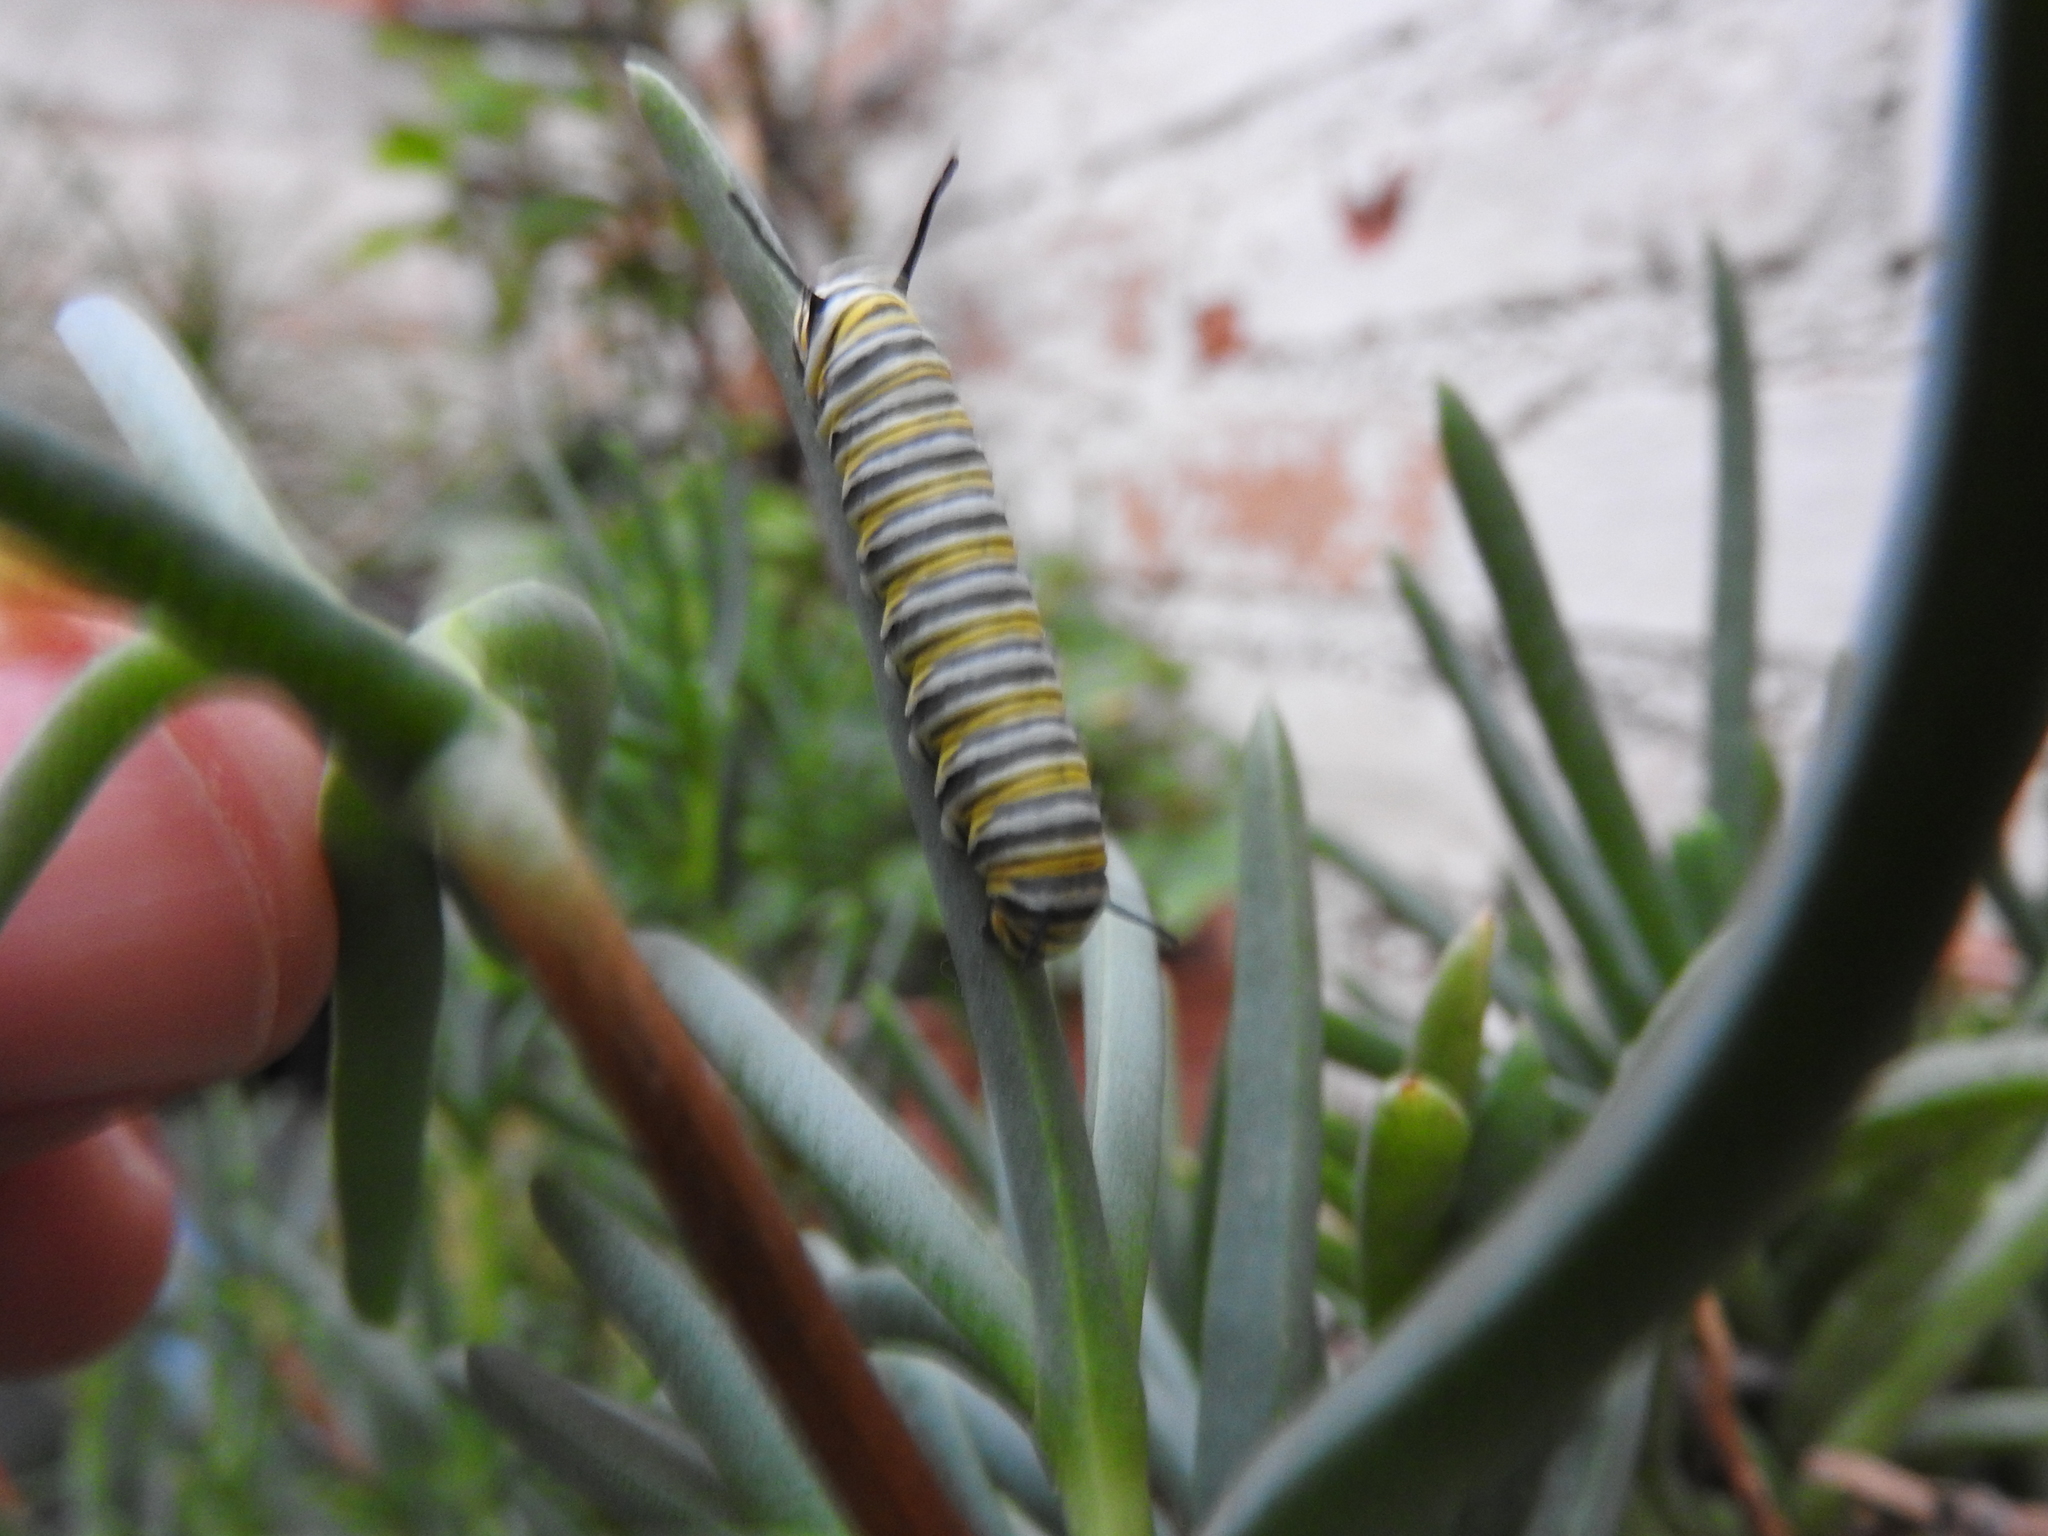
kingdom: Animalia
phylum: Arthropoda
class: Insecta
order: Lepidoptera
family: Nymphalidae
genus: Danaus
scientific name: Danaus plexippus
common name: Monarch
